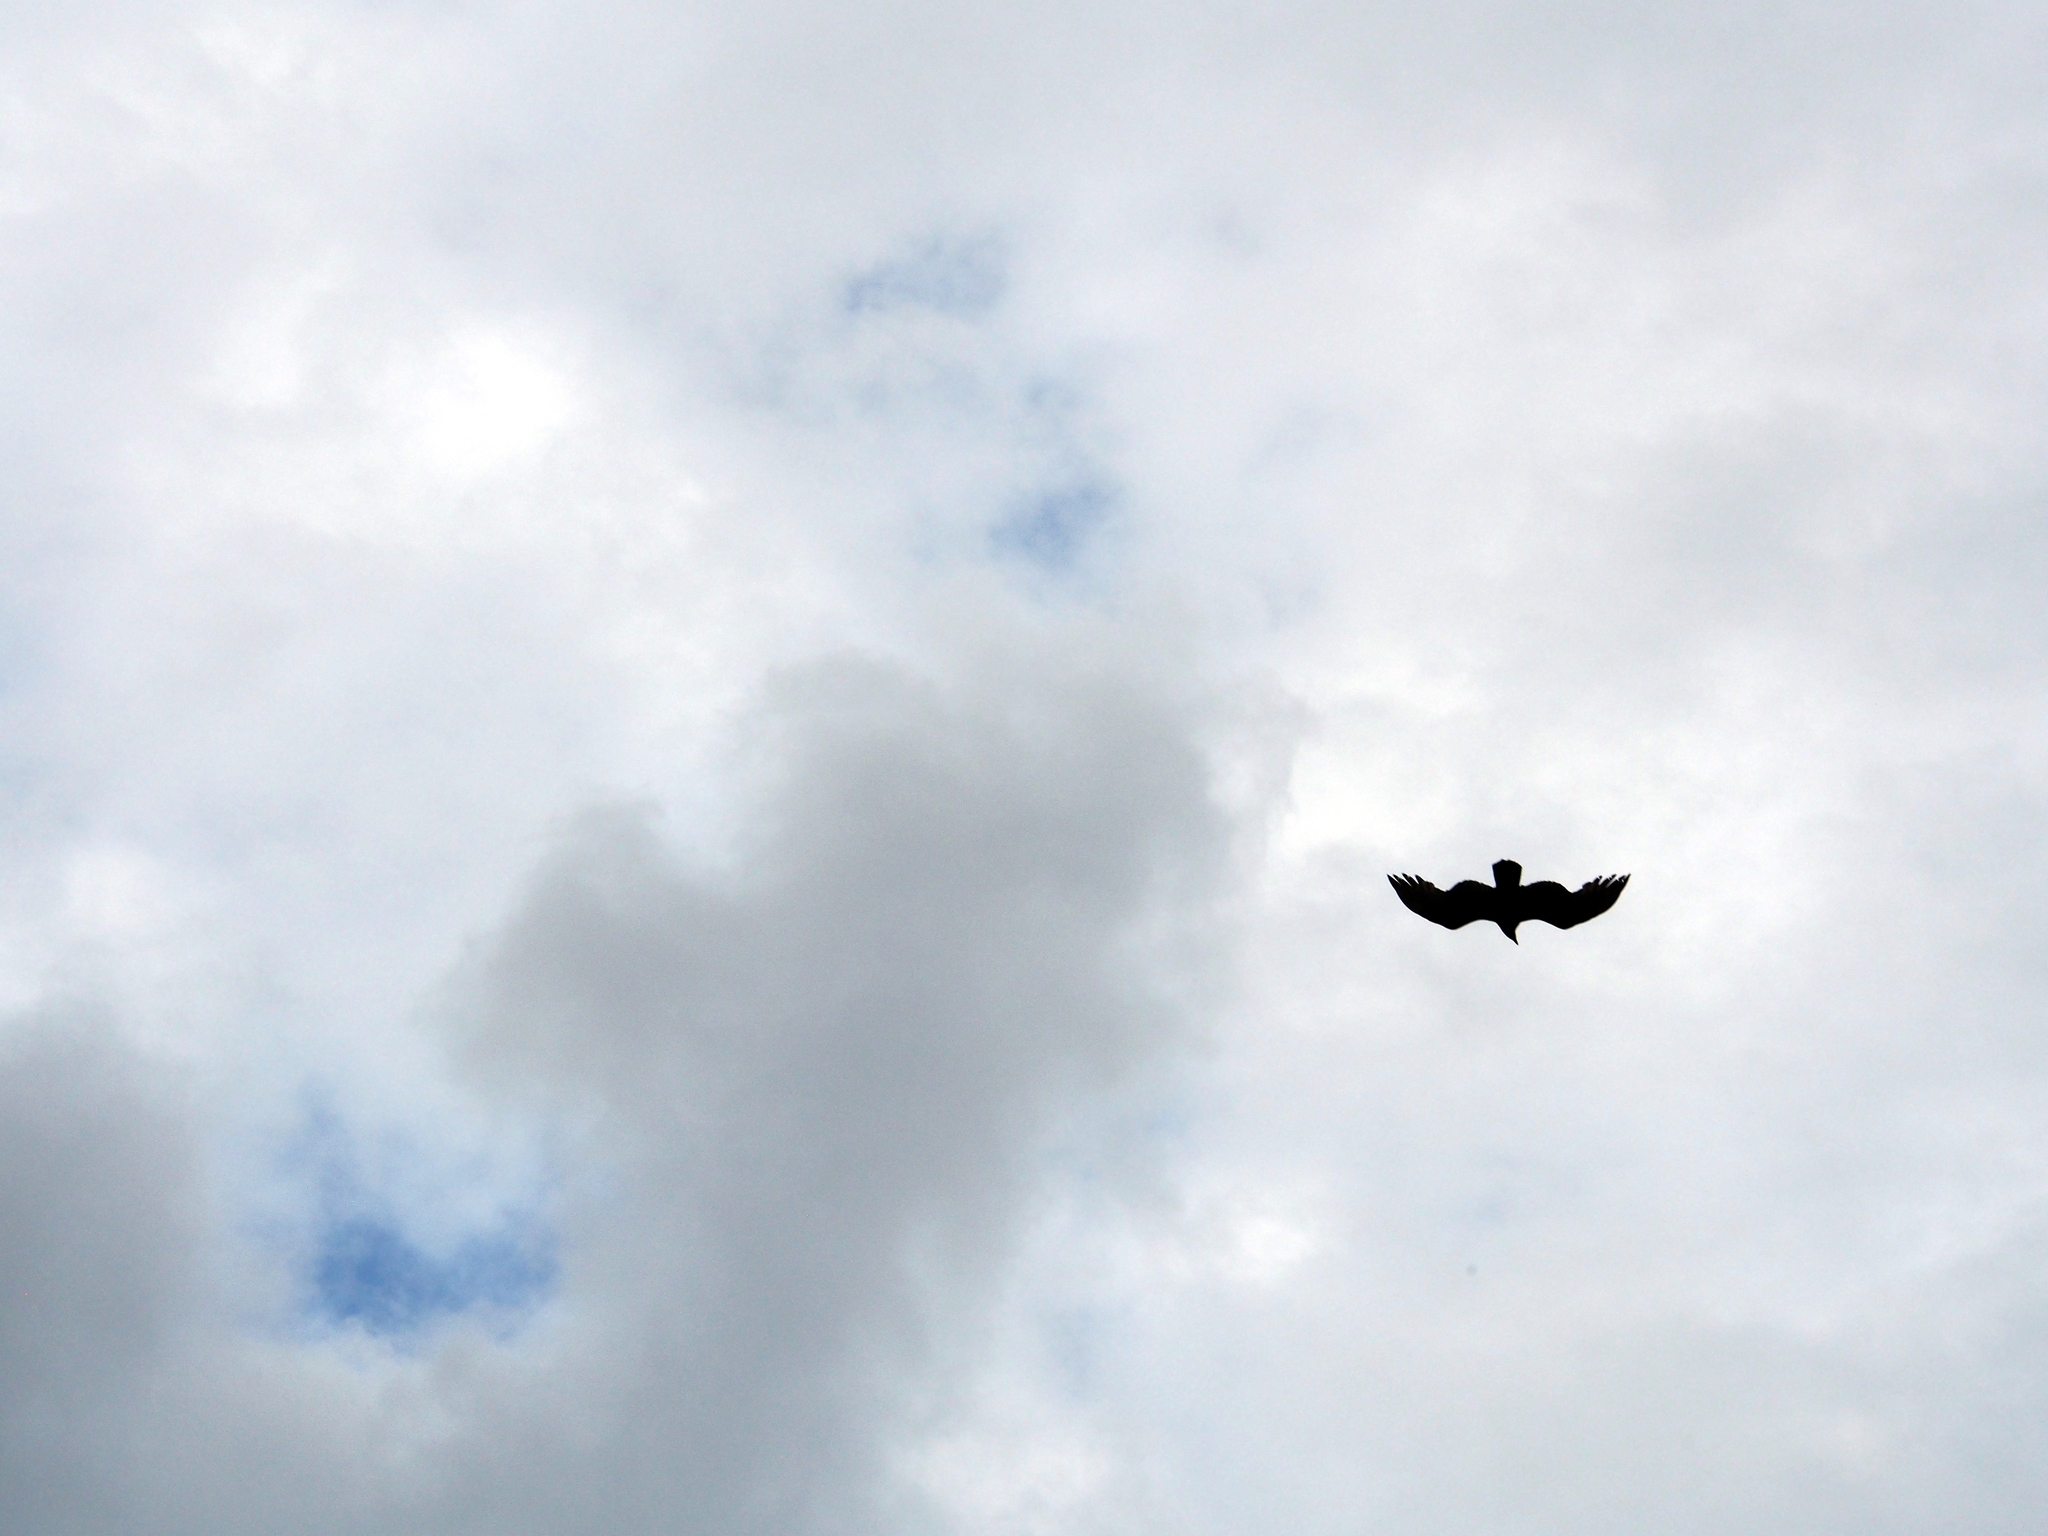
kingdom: Animalia
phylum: Chordata
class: Aves
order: Accipitriformes
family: Cathartidae
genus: Cathartes
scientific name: Cathartes aura
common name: Turkey vulture
